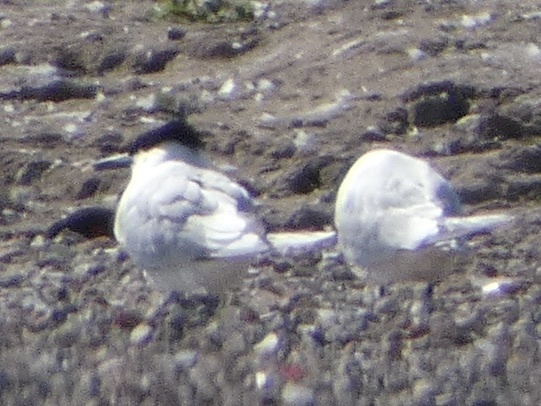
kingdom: Animalia
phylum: Chordata
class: Aves
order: Charadriiformes
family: Laridae
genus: Thalasseus
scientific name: Thalasseus sandvicensis
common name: Sandwich tern
